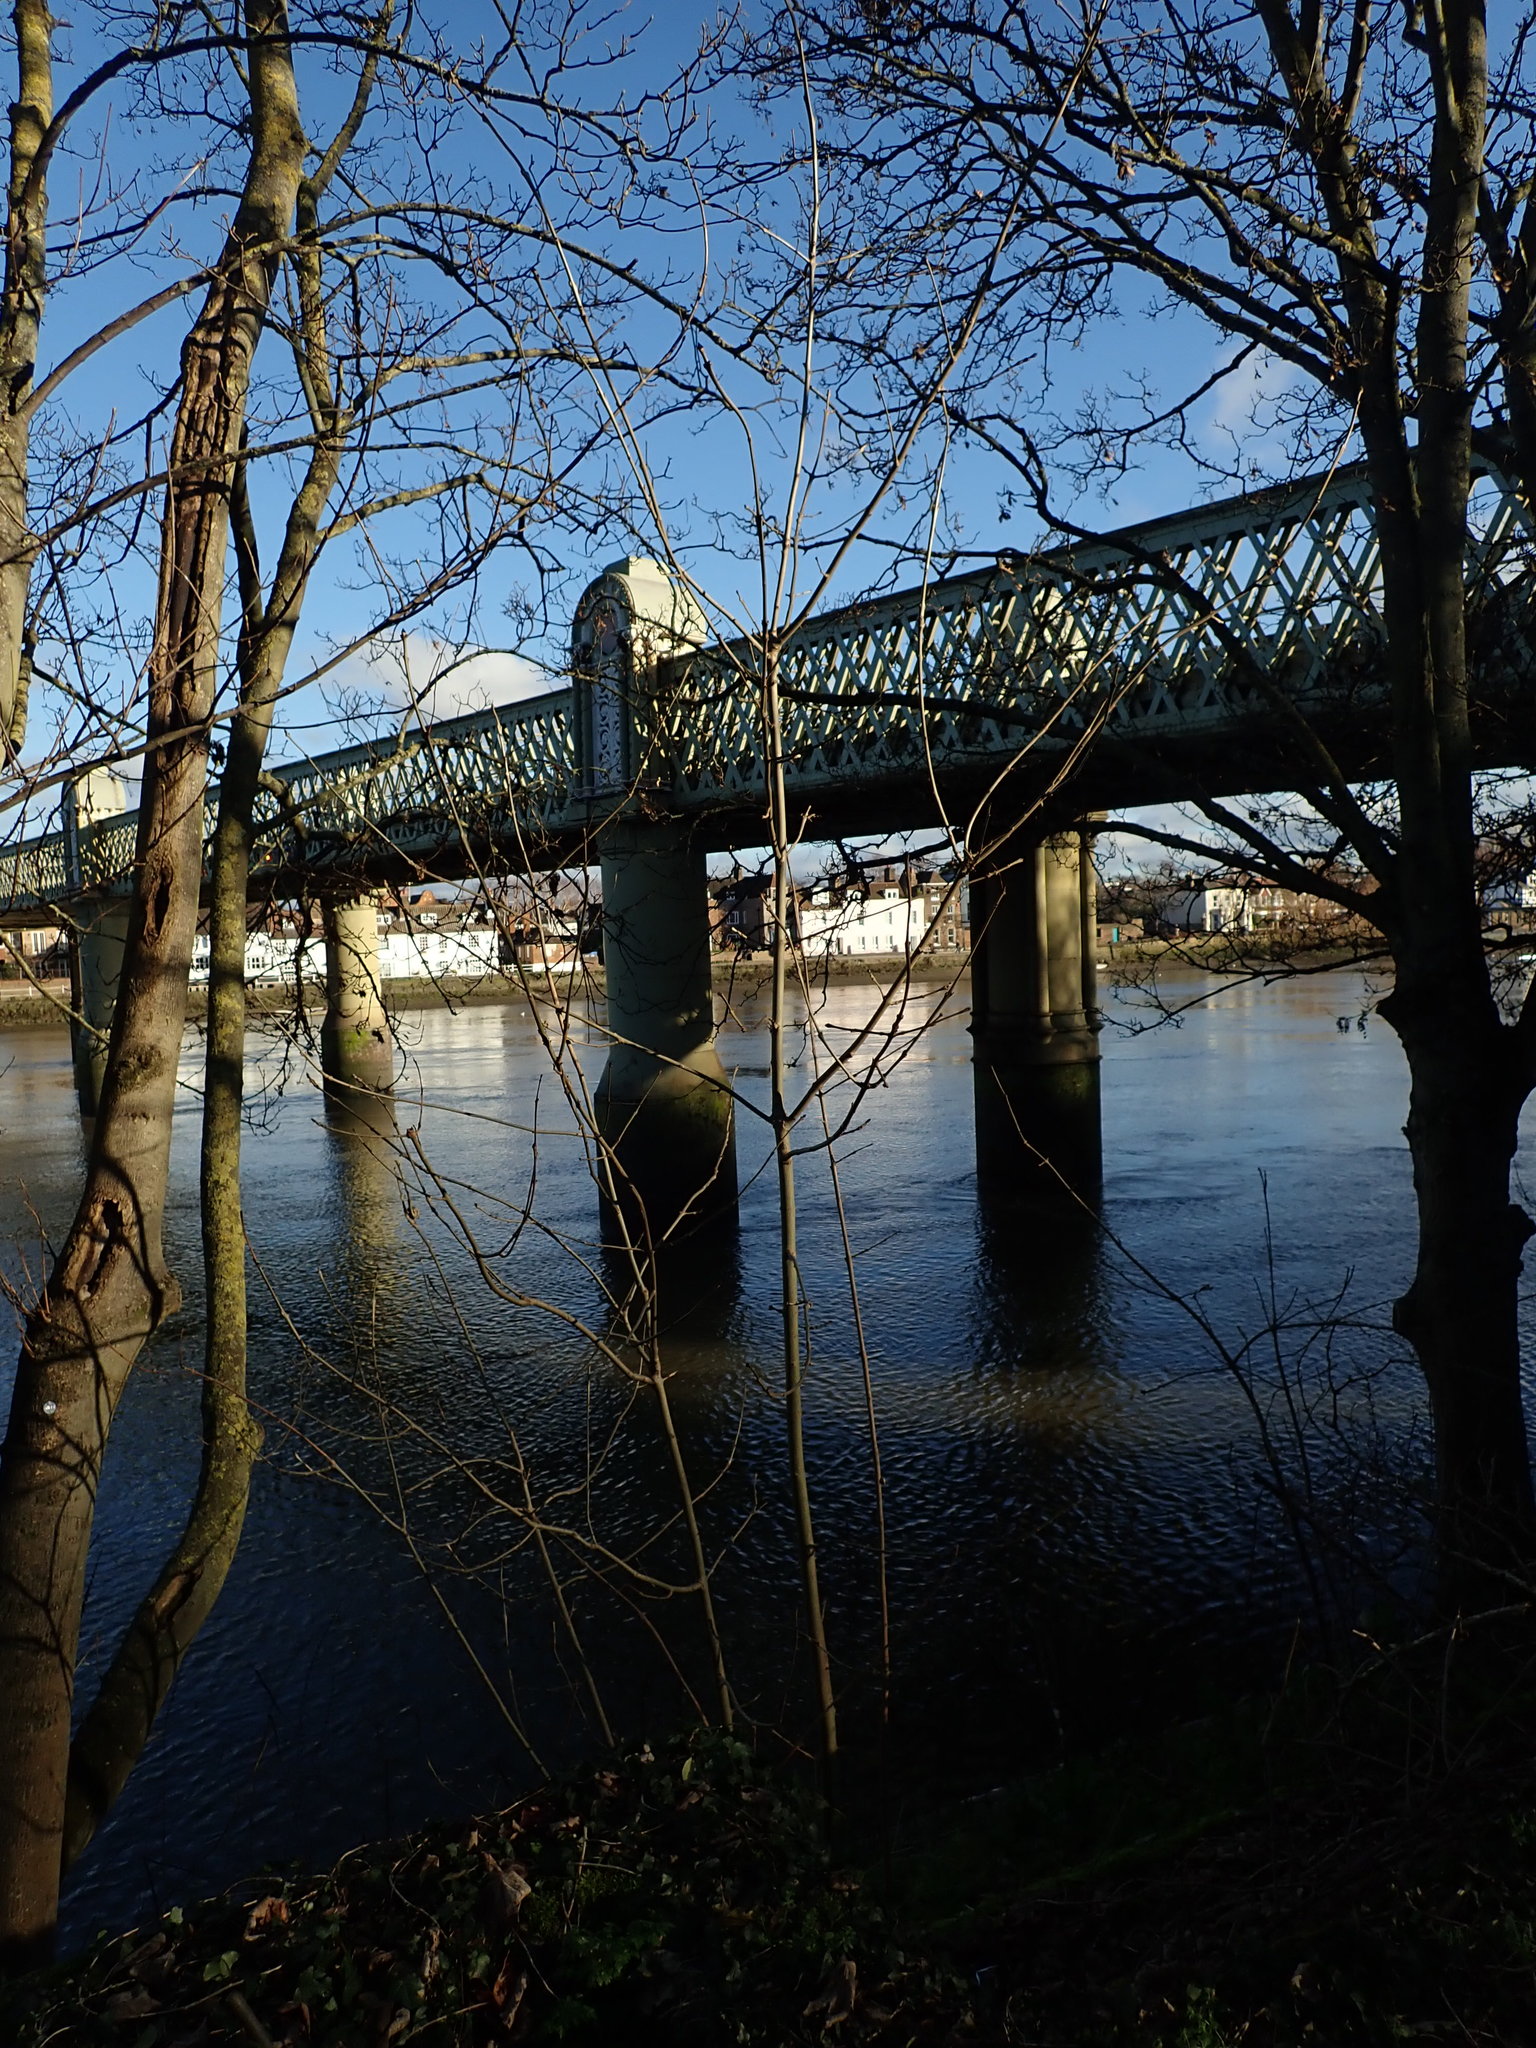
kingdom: Plantae
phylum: Tracheophyta
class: Magnoliopsida
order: Lamiales
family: Oleaceae
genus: Fraxinus
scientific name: Fraxinus excelsior
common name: European ash
